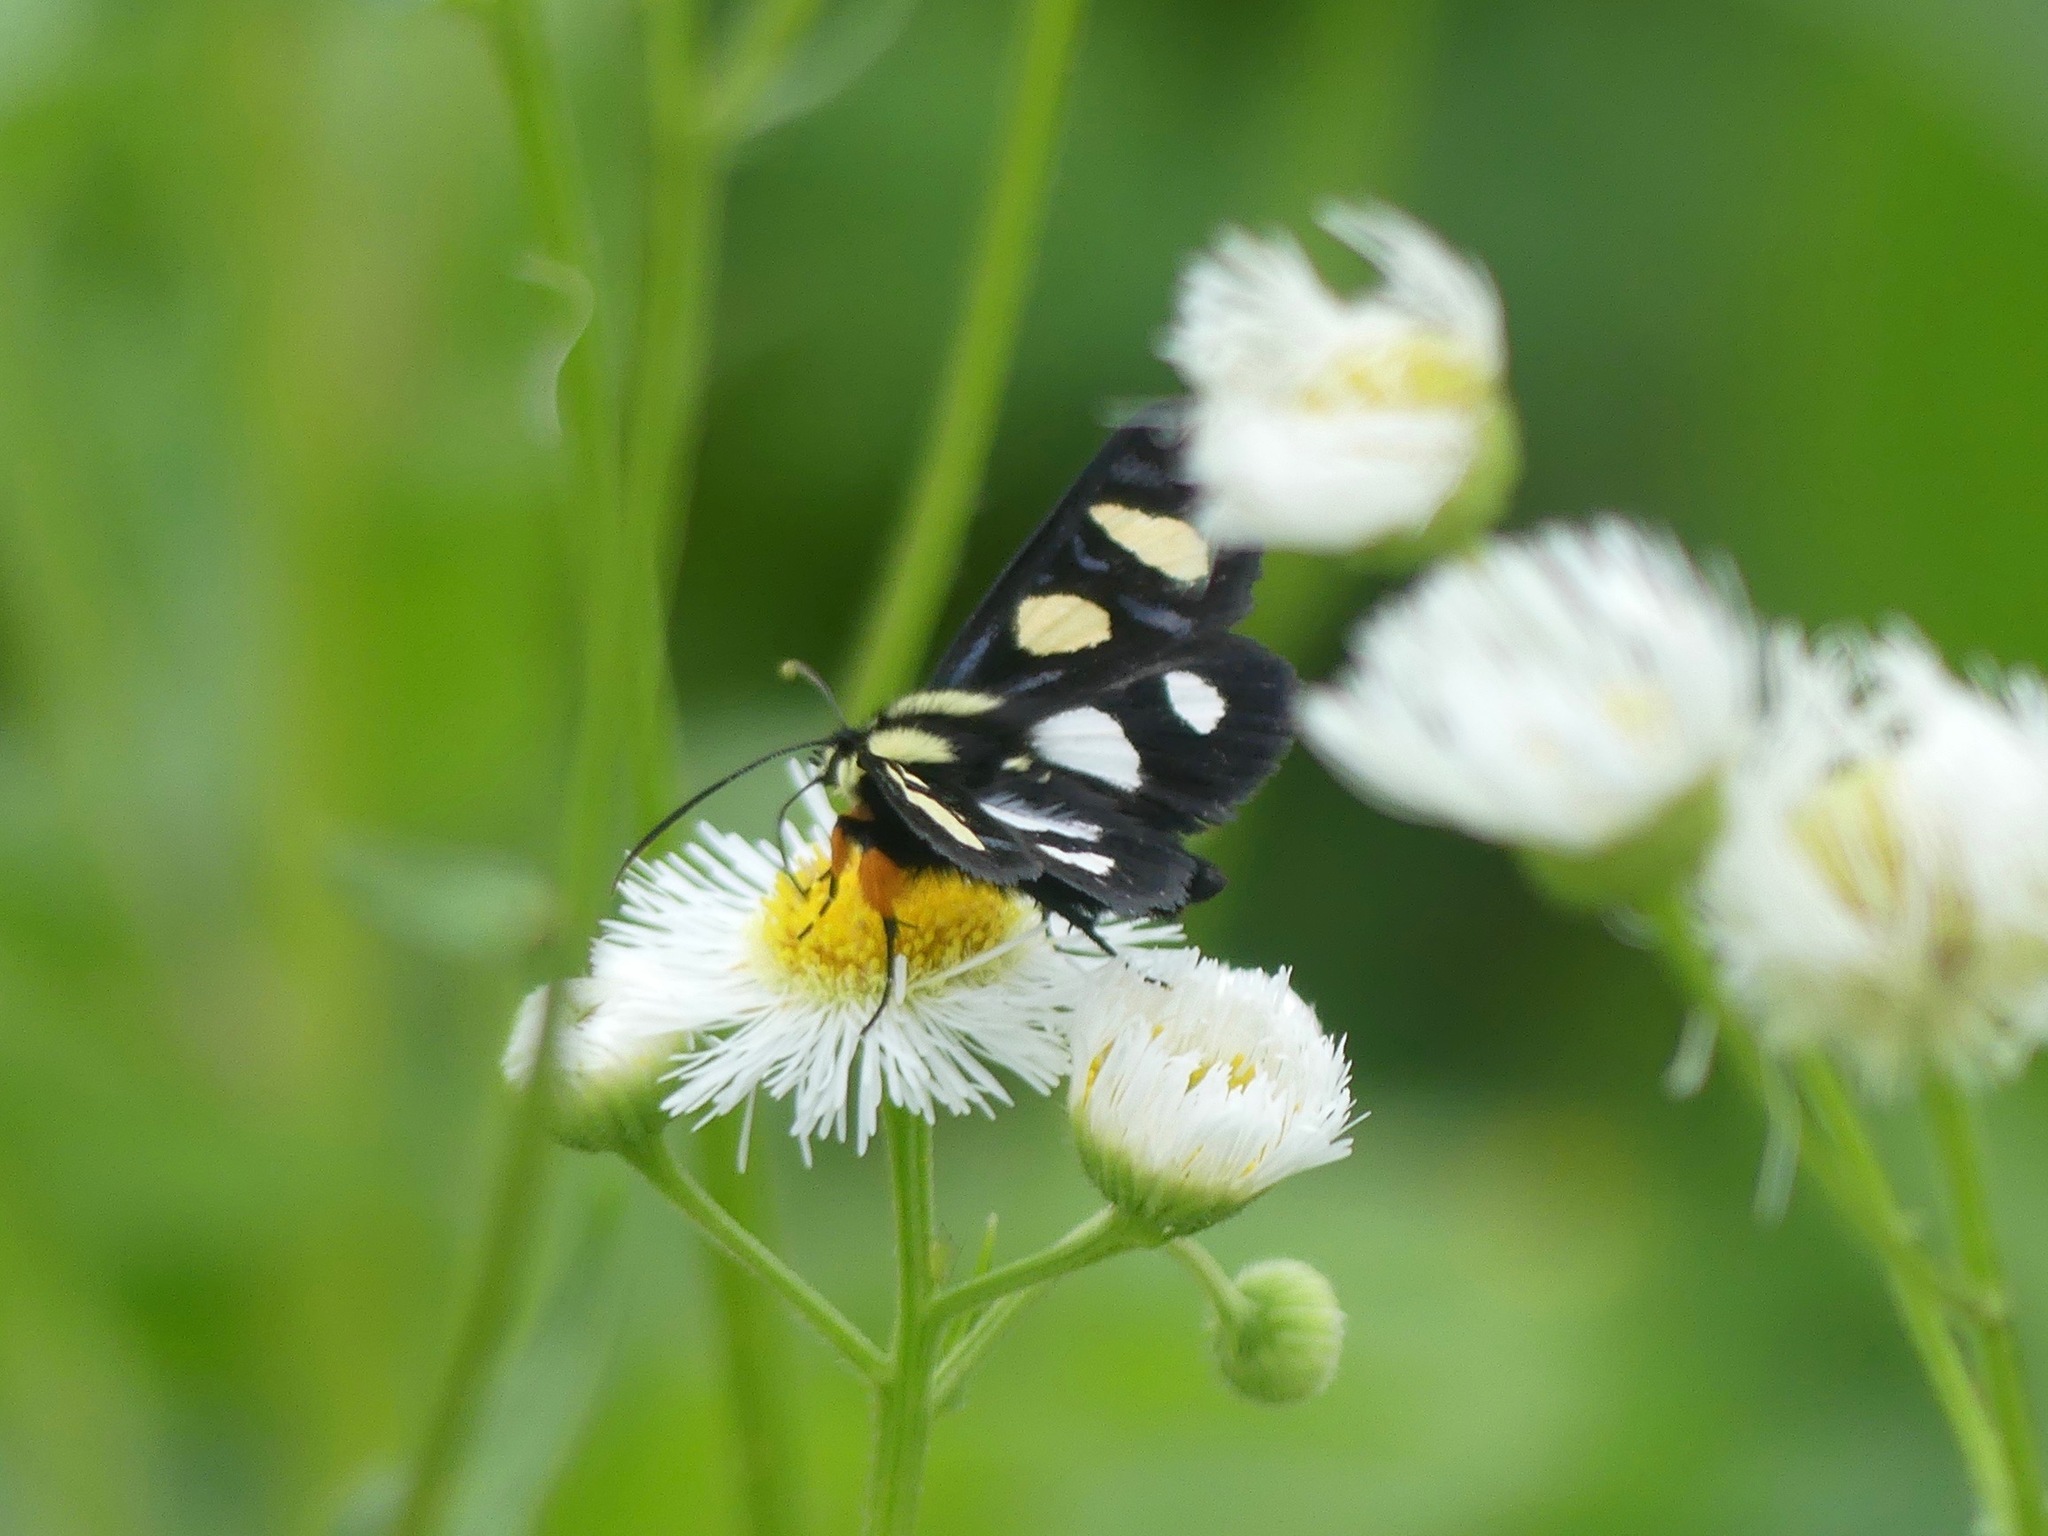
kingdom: Animalia
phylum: Arthropoda
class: Insecta
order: Lepidoptera
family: Noctuidae
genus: Alypia
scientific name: Alypia octomaculata
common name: Eight-spotted forester
